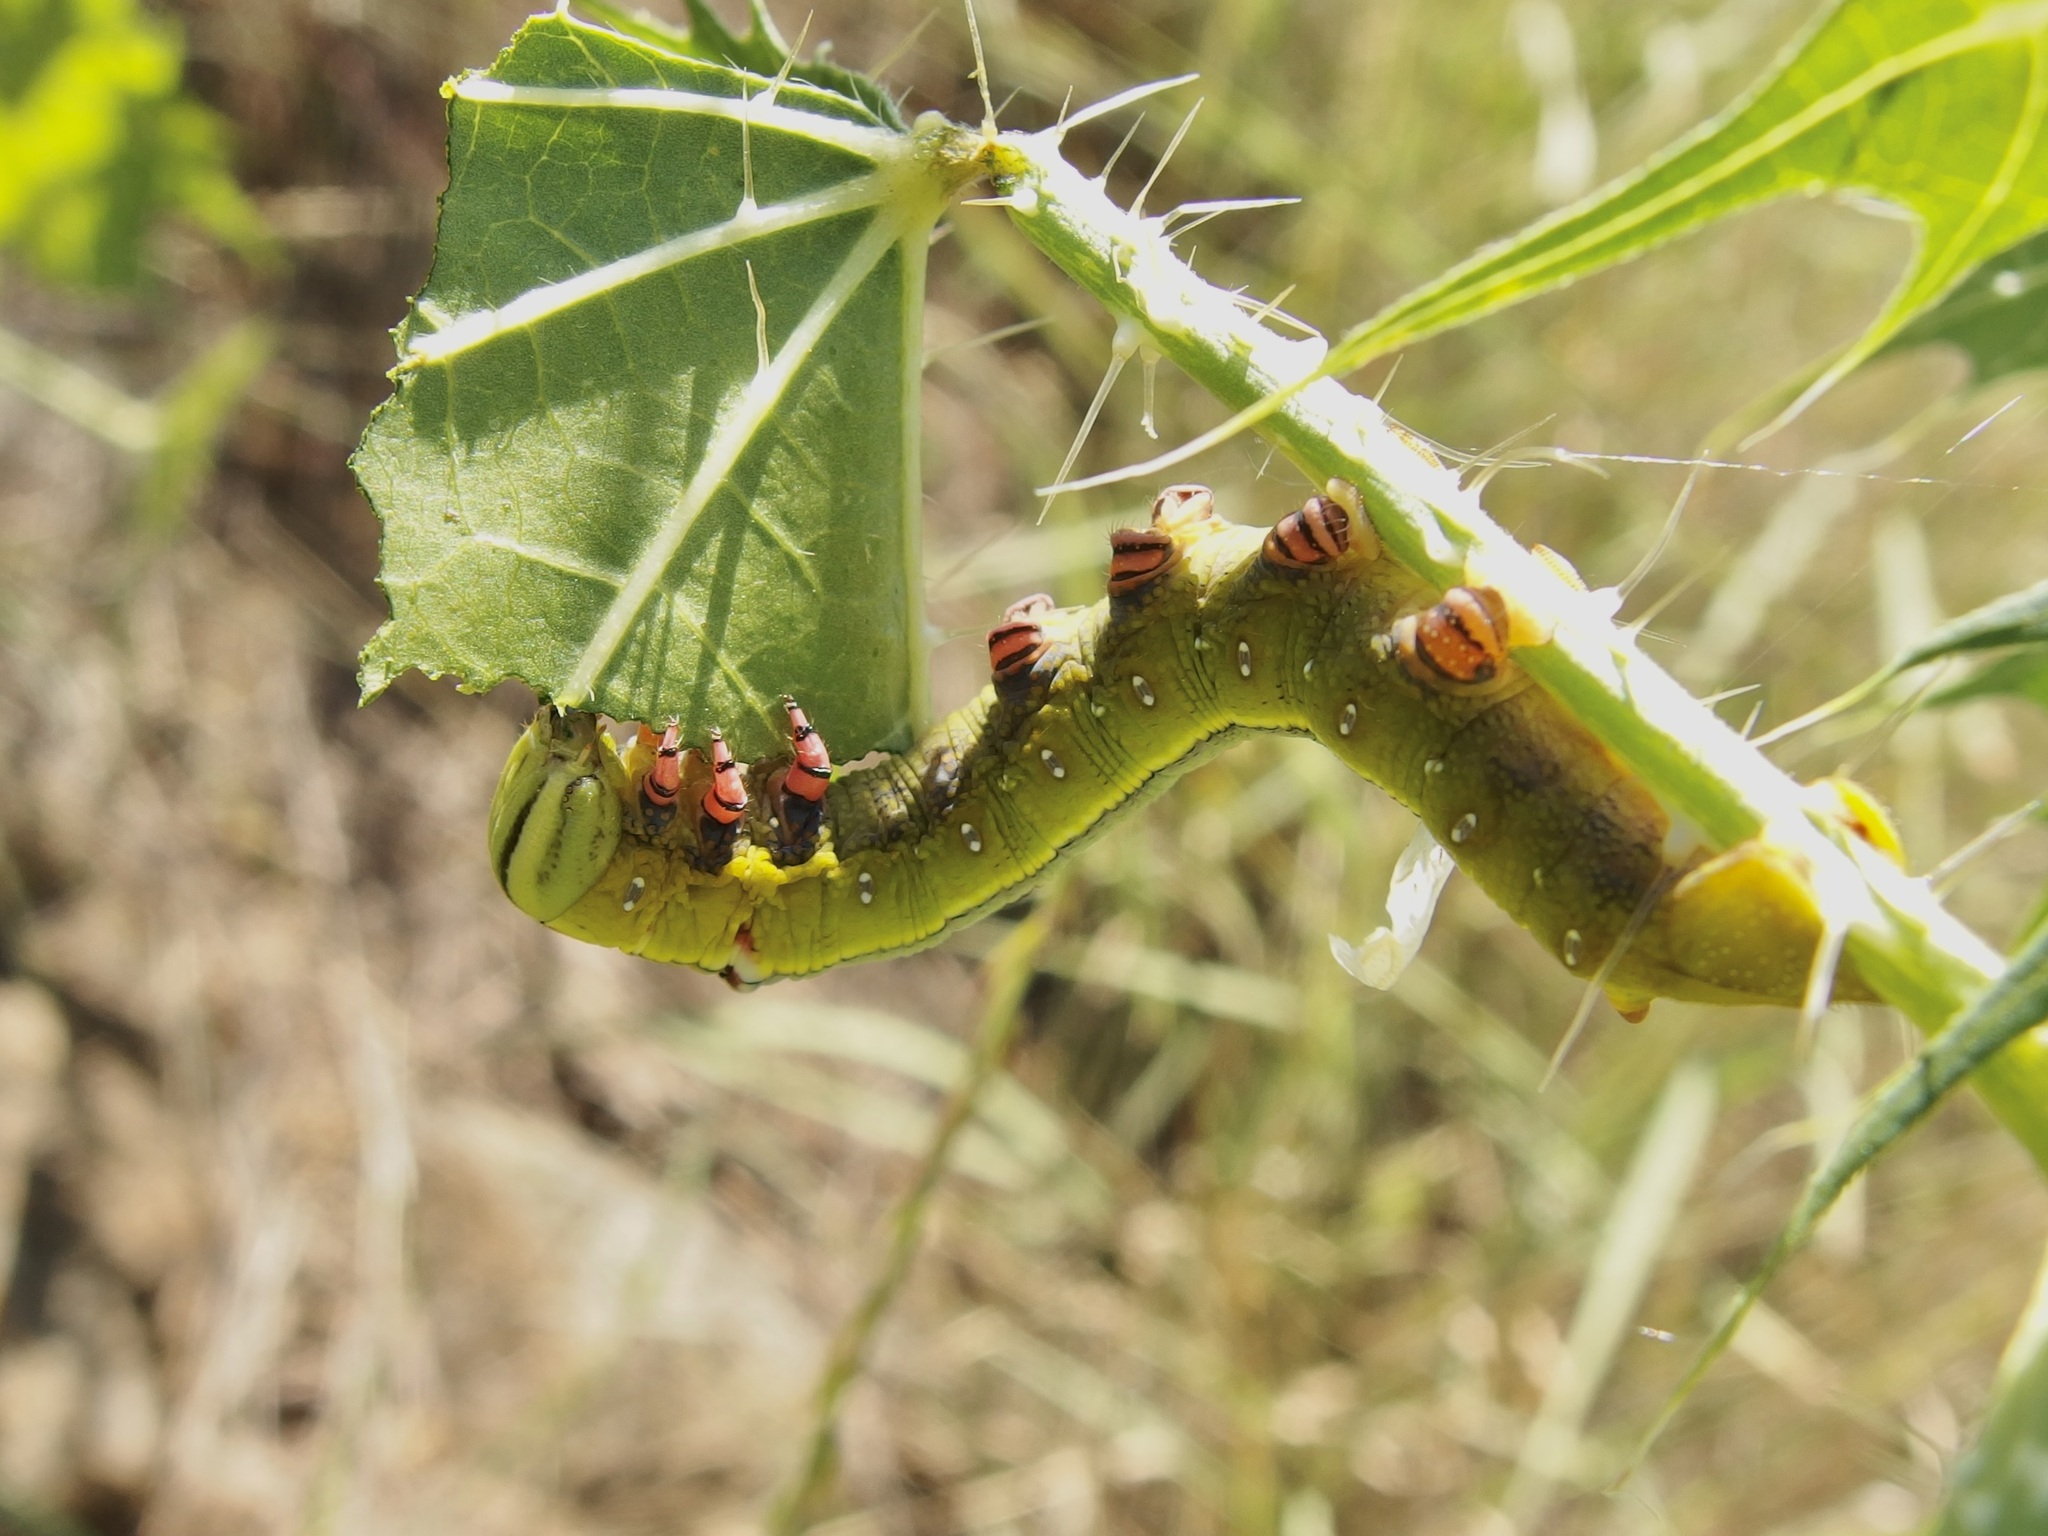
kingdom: Animalia
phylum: Arthropoda
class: Insecta
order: Lepidoptera
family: Sphingidae
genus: Erinnyis
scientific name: Erinnyis ello
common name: Ello sphinx
